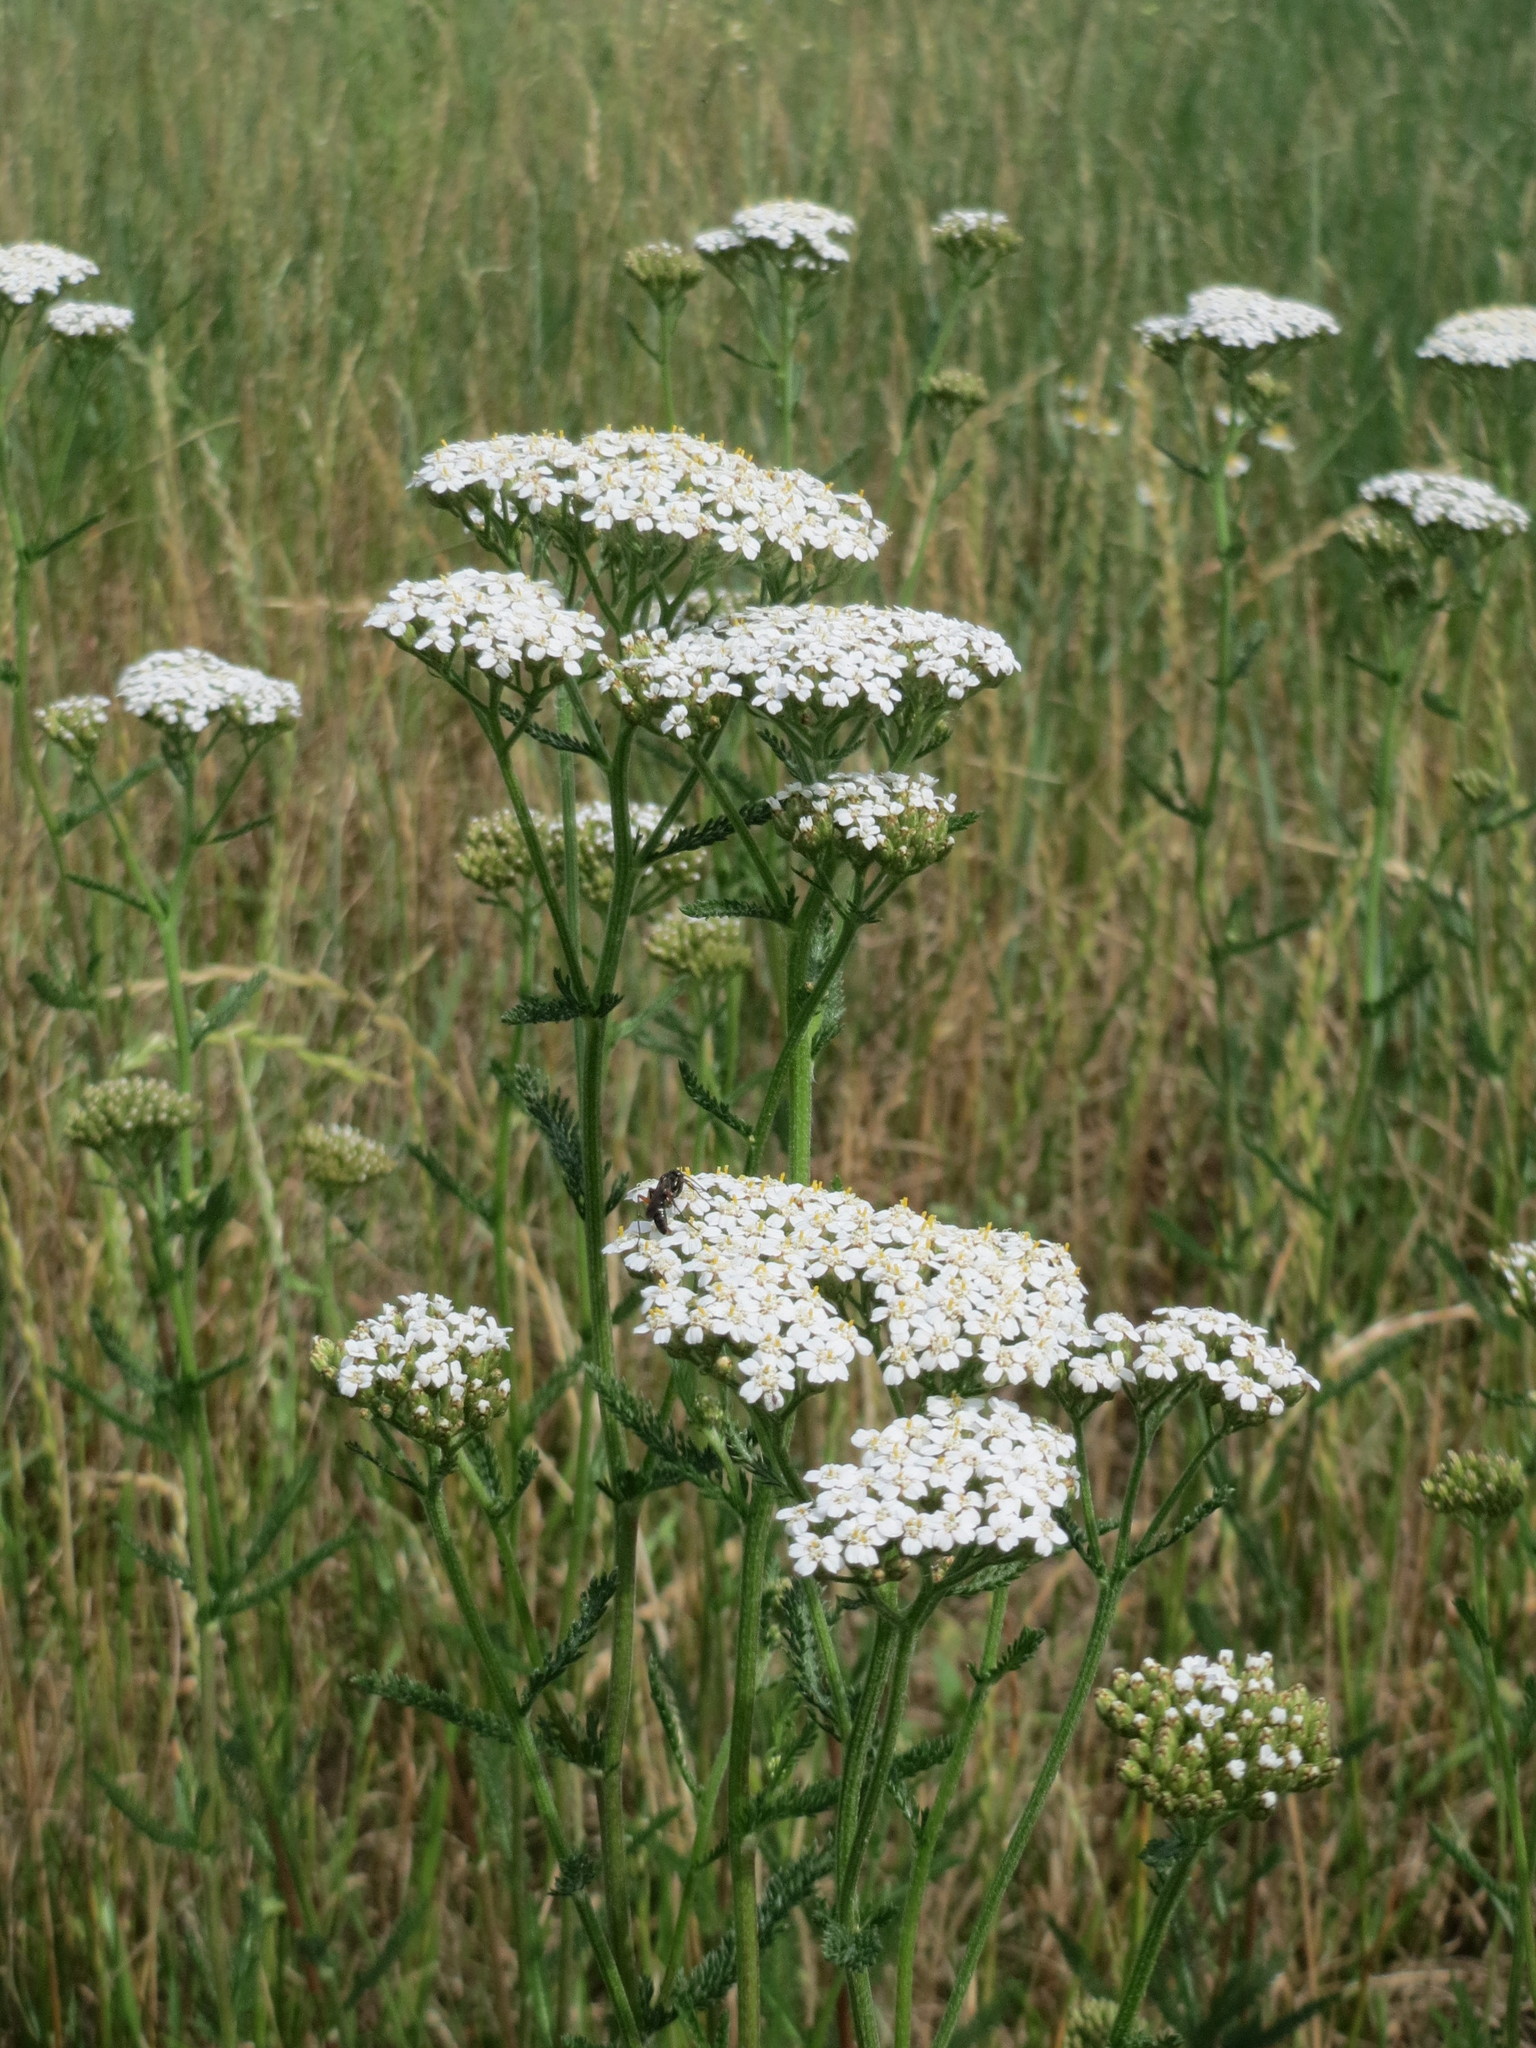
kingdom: Plantae
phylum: Tracheophyta
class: Magnoliopsida
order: Asterales
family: Asteraceae
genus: Achillea
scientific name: Achillea millefolium
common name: Yarrow
